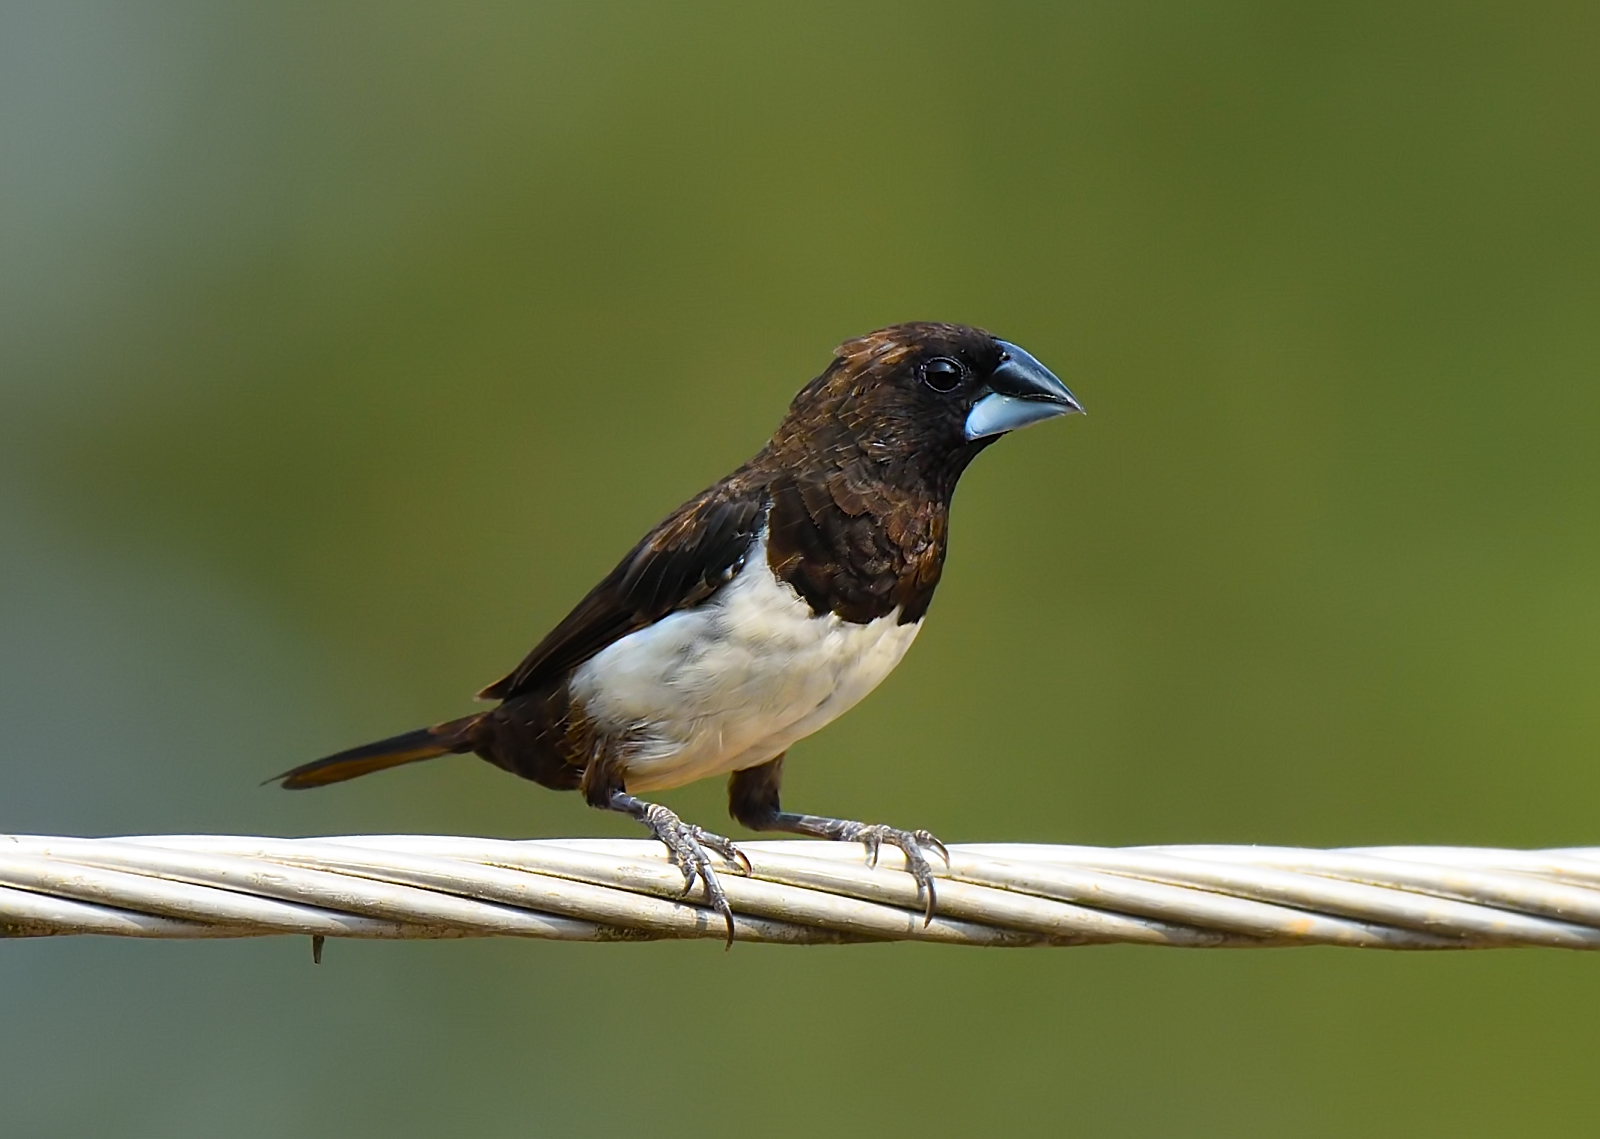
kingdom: Animalia
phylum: Chordata
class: Aves
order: Passeriformes
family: Estrildidae
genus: Lonchura
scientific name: Lonchura striata
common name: White-rumped munia
